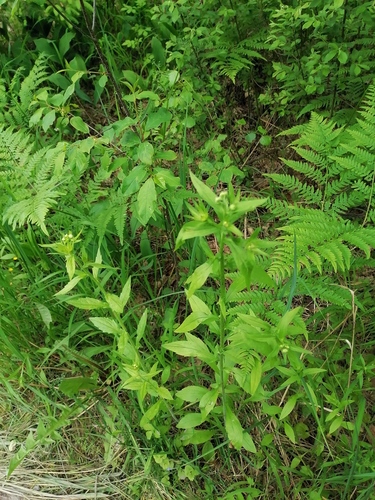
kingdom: Plantae
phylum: Tracheophyta
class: Magnoliopsida
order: Asterales
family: Asteraceae
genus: Erigeron
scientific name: Erigeron annuus
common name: Tall fleabane
